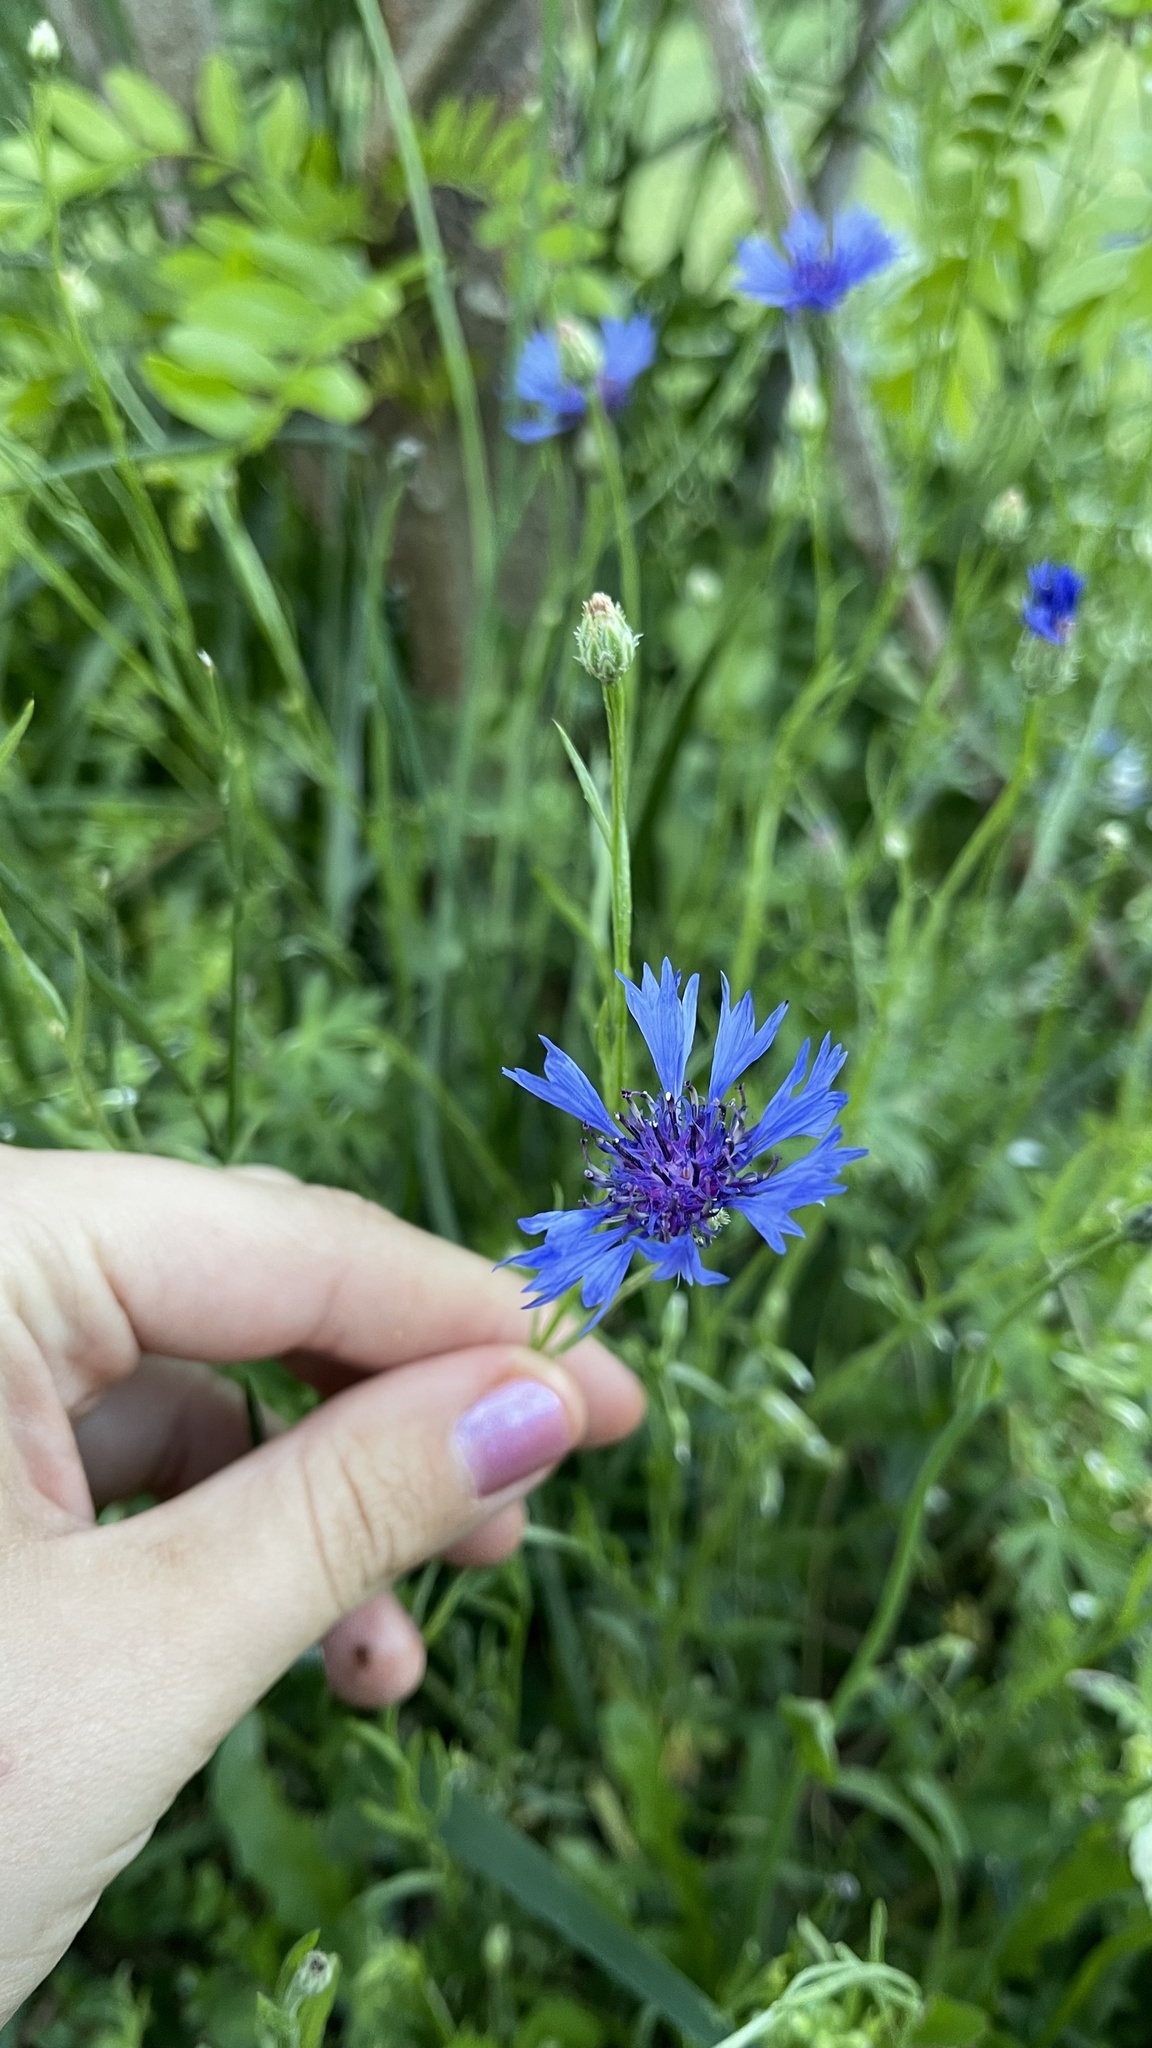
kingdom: Plantae
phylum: Tracheophyta
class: Magnoliopsida
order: Asterales
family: Asteraceae
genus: Centaurea
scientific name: Centaurea cyanus
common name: Cornflower
